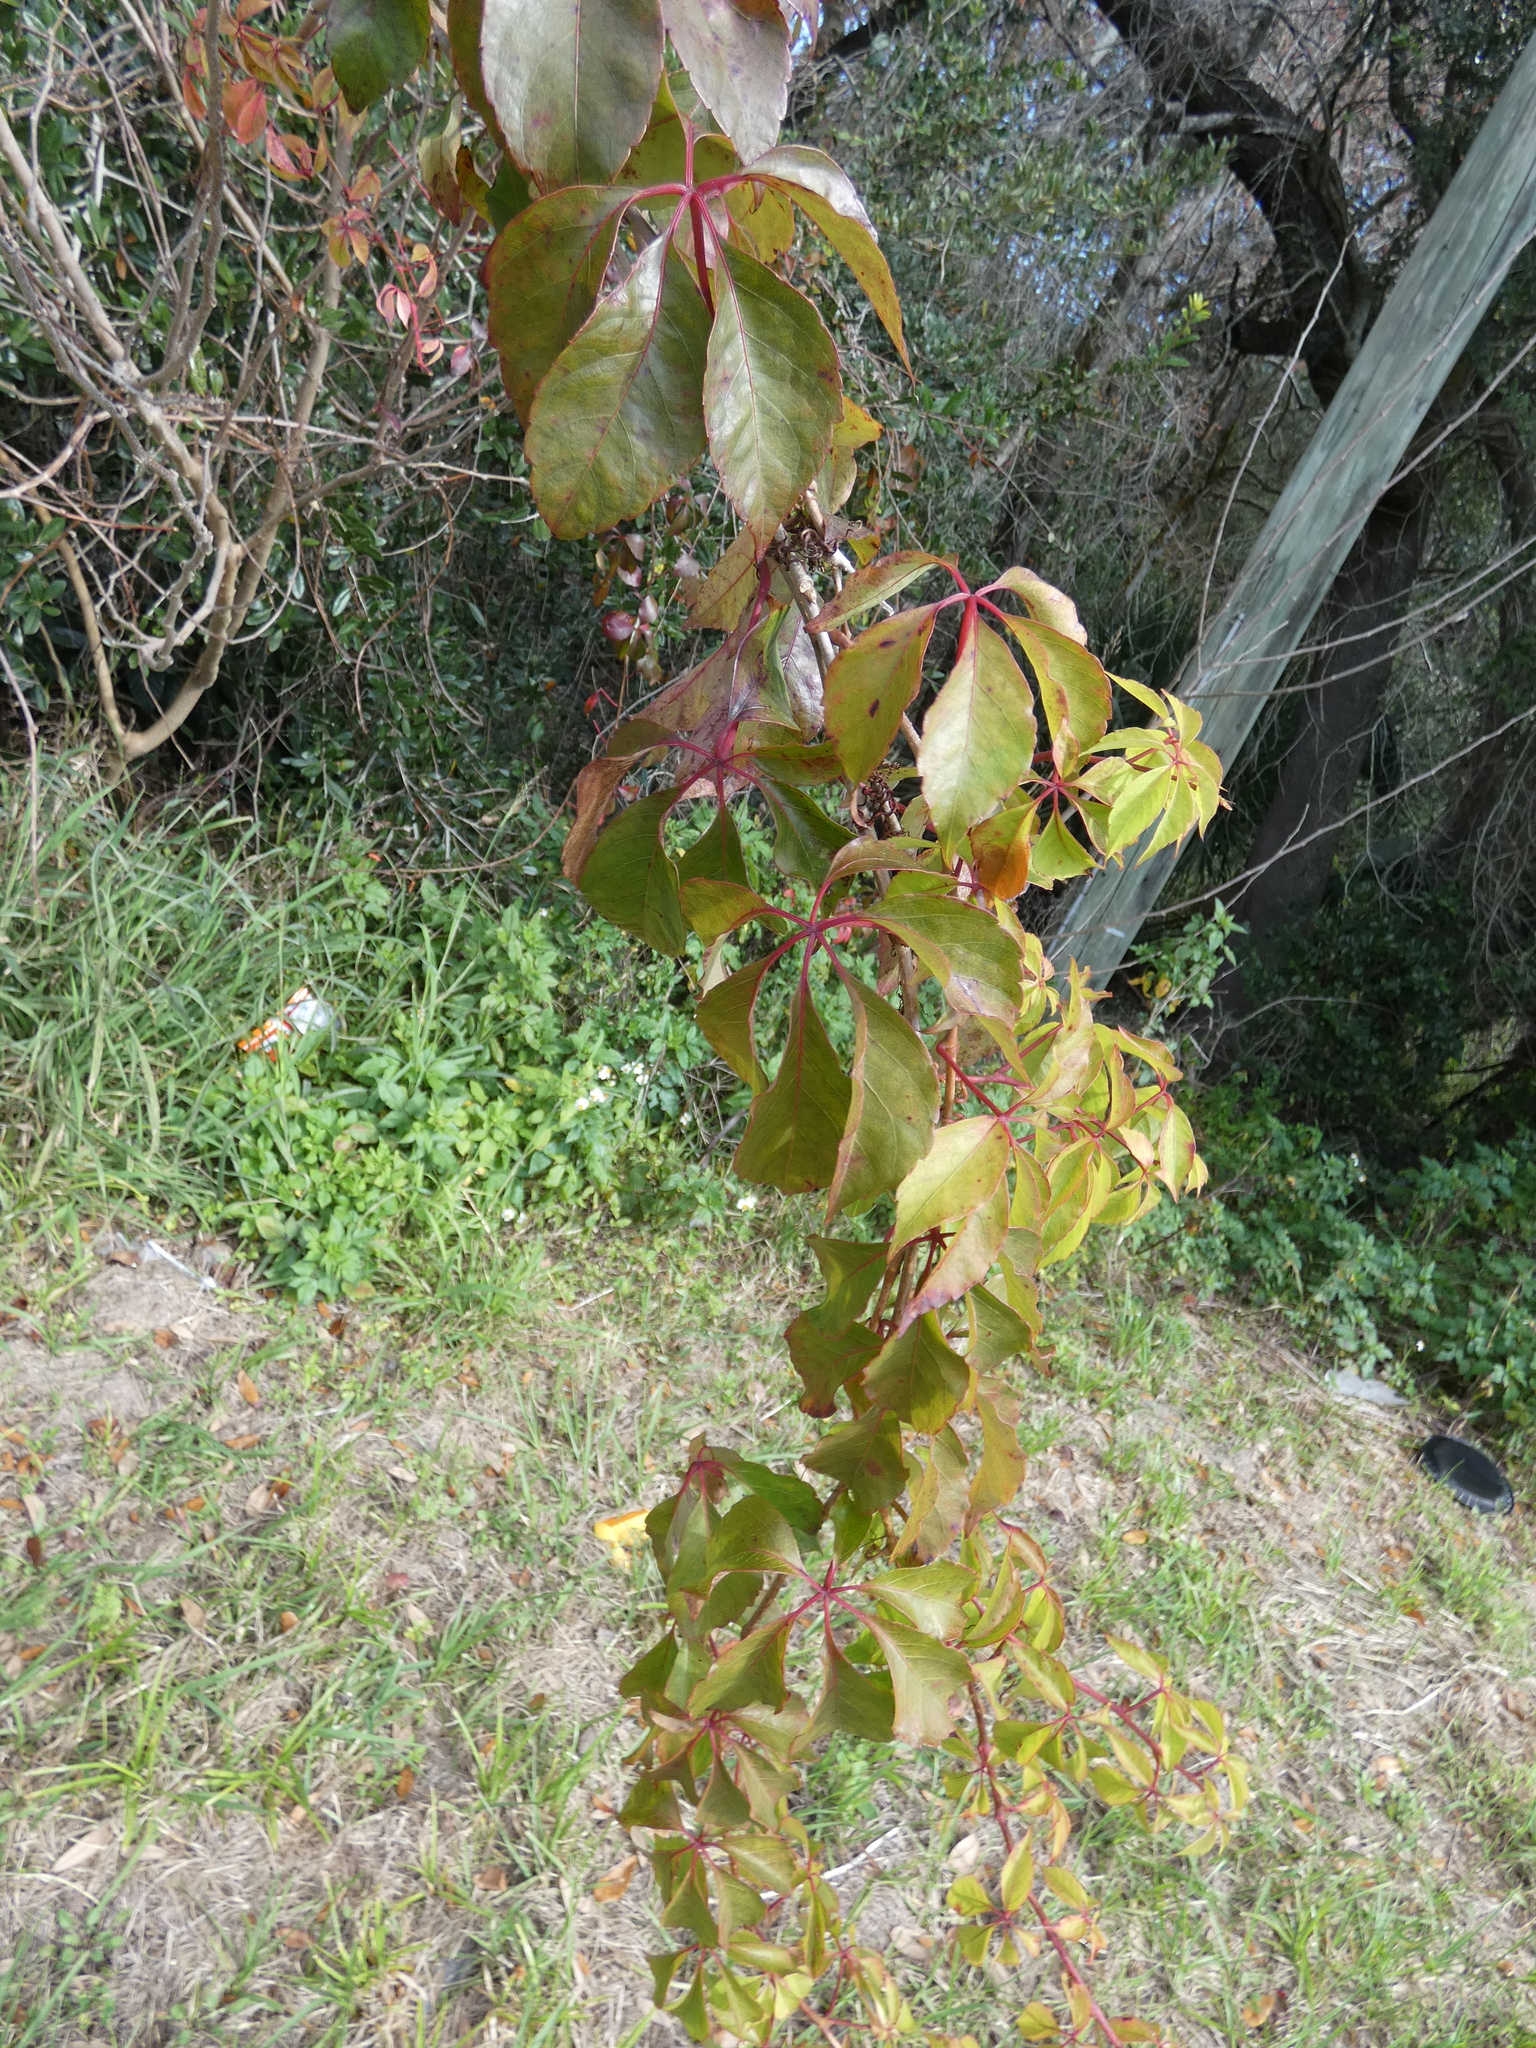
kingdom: Plantae
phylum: Tracheophyta
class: Magnoliopsida
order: Vitales
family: Vitaceae
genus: Parthenocissus
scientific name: Parthenocissus quinquefolia
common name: Virginia-creeper
